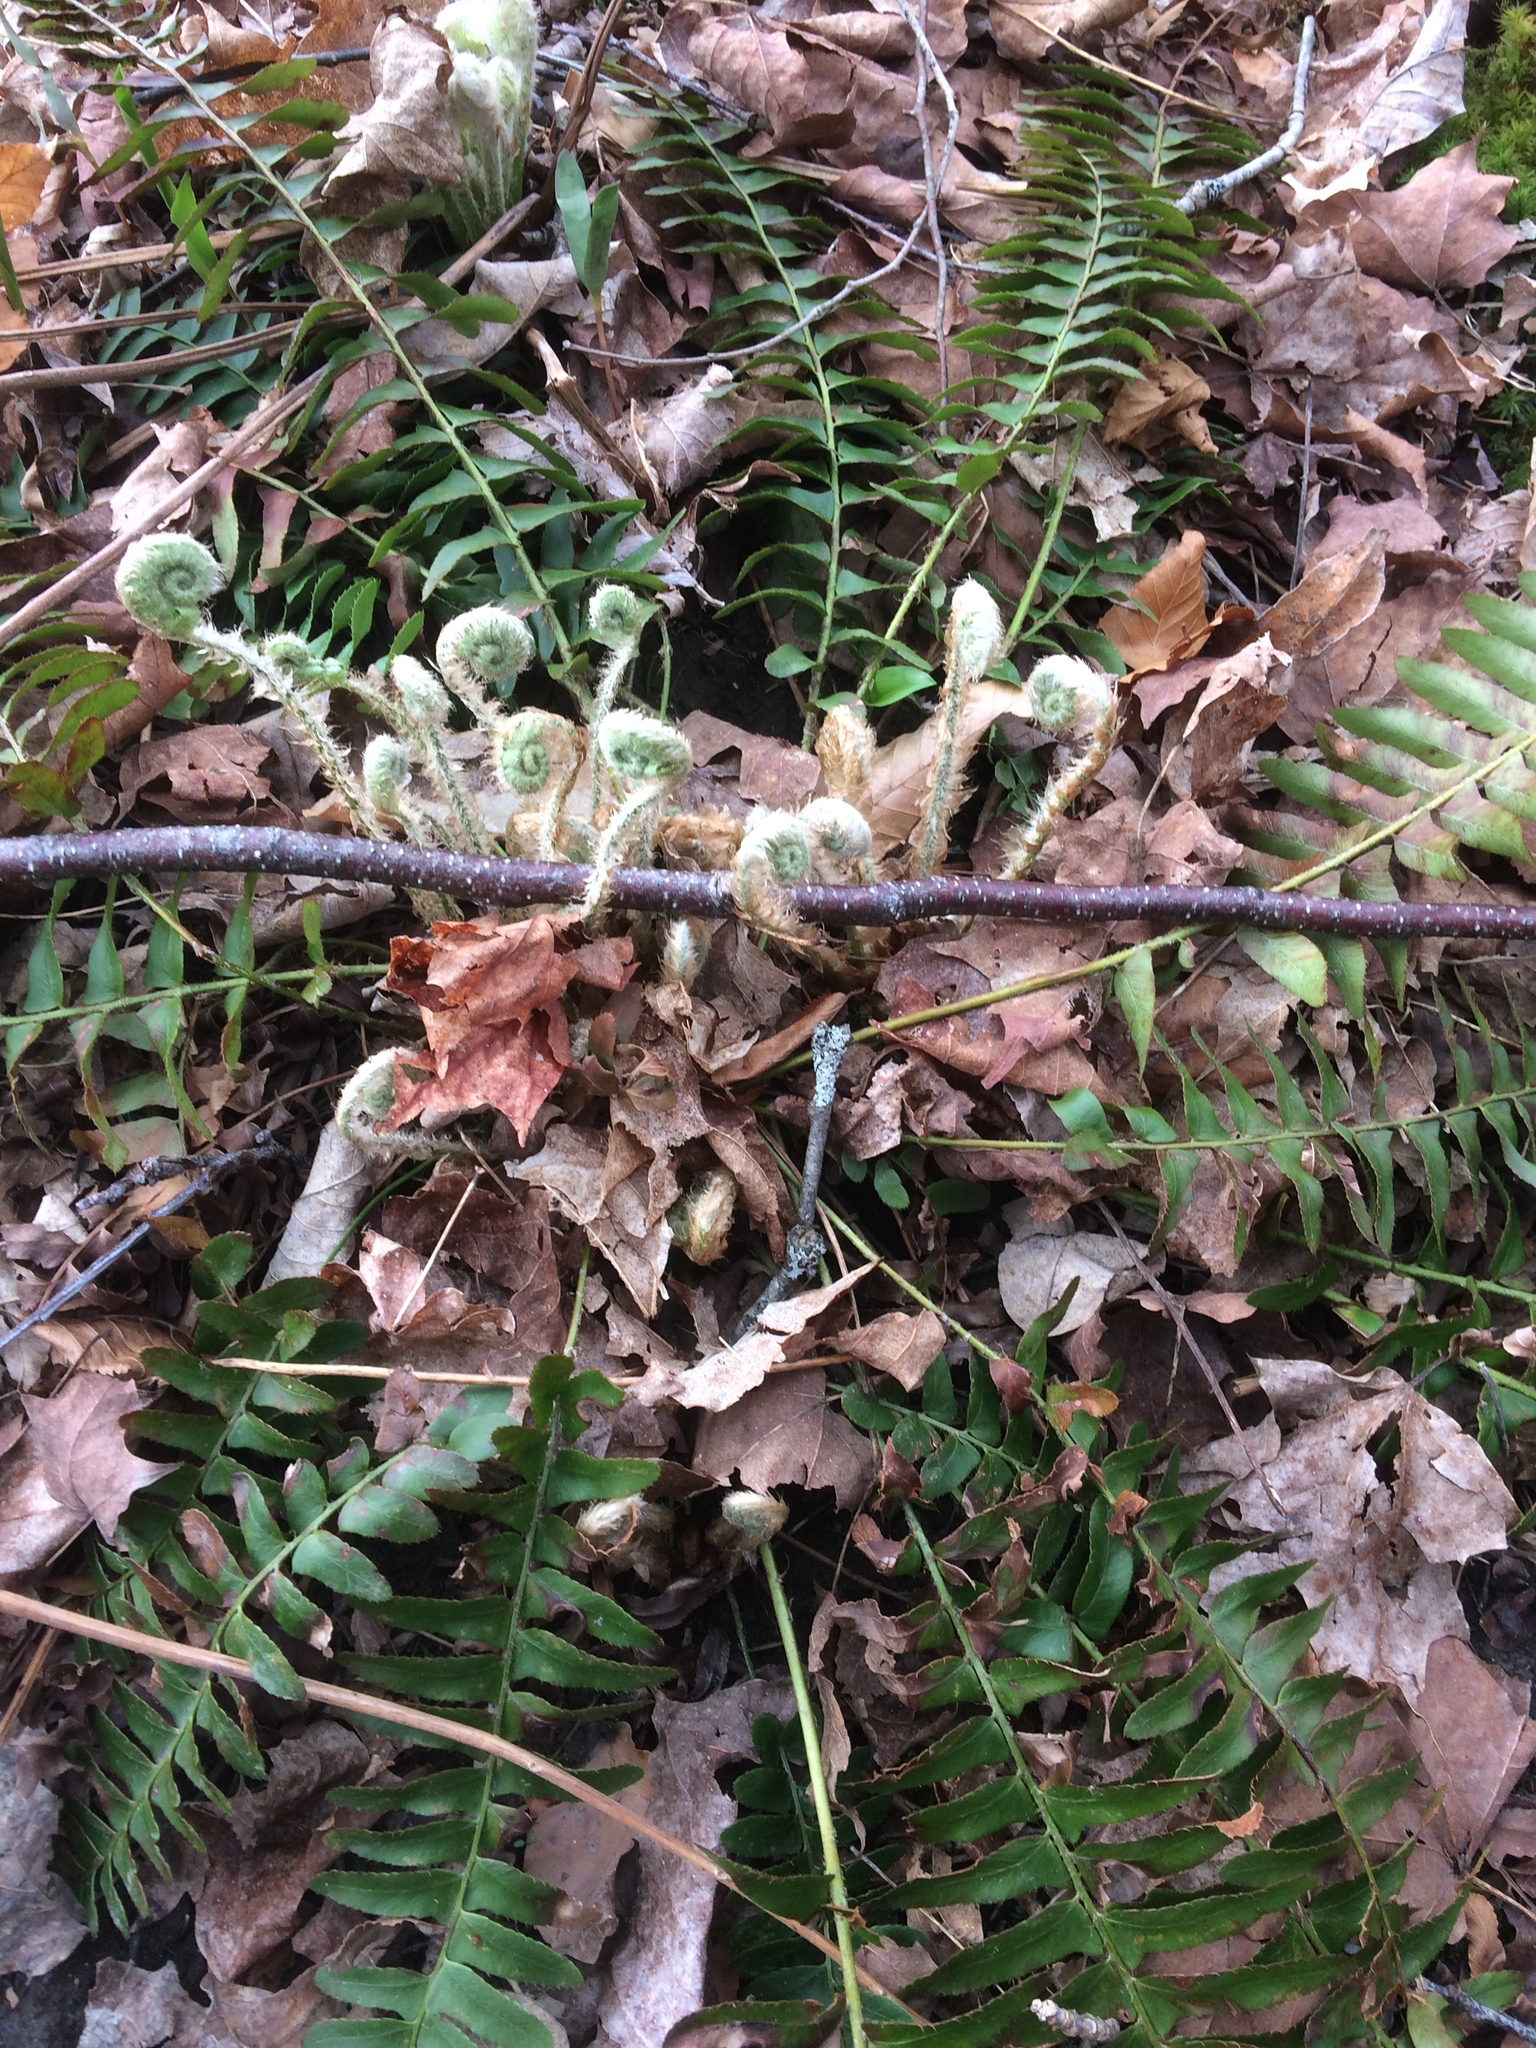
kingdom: Plantae
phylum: Tracheophyta
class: Polypodiopsida
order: Polypodiales
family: Dryopteridaceae
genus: Polystichum
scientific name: Polystichum acrostichoides
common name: Christmas fern
